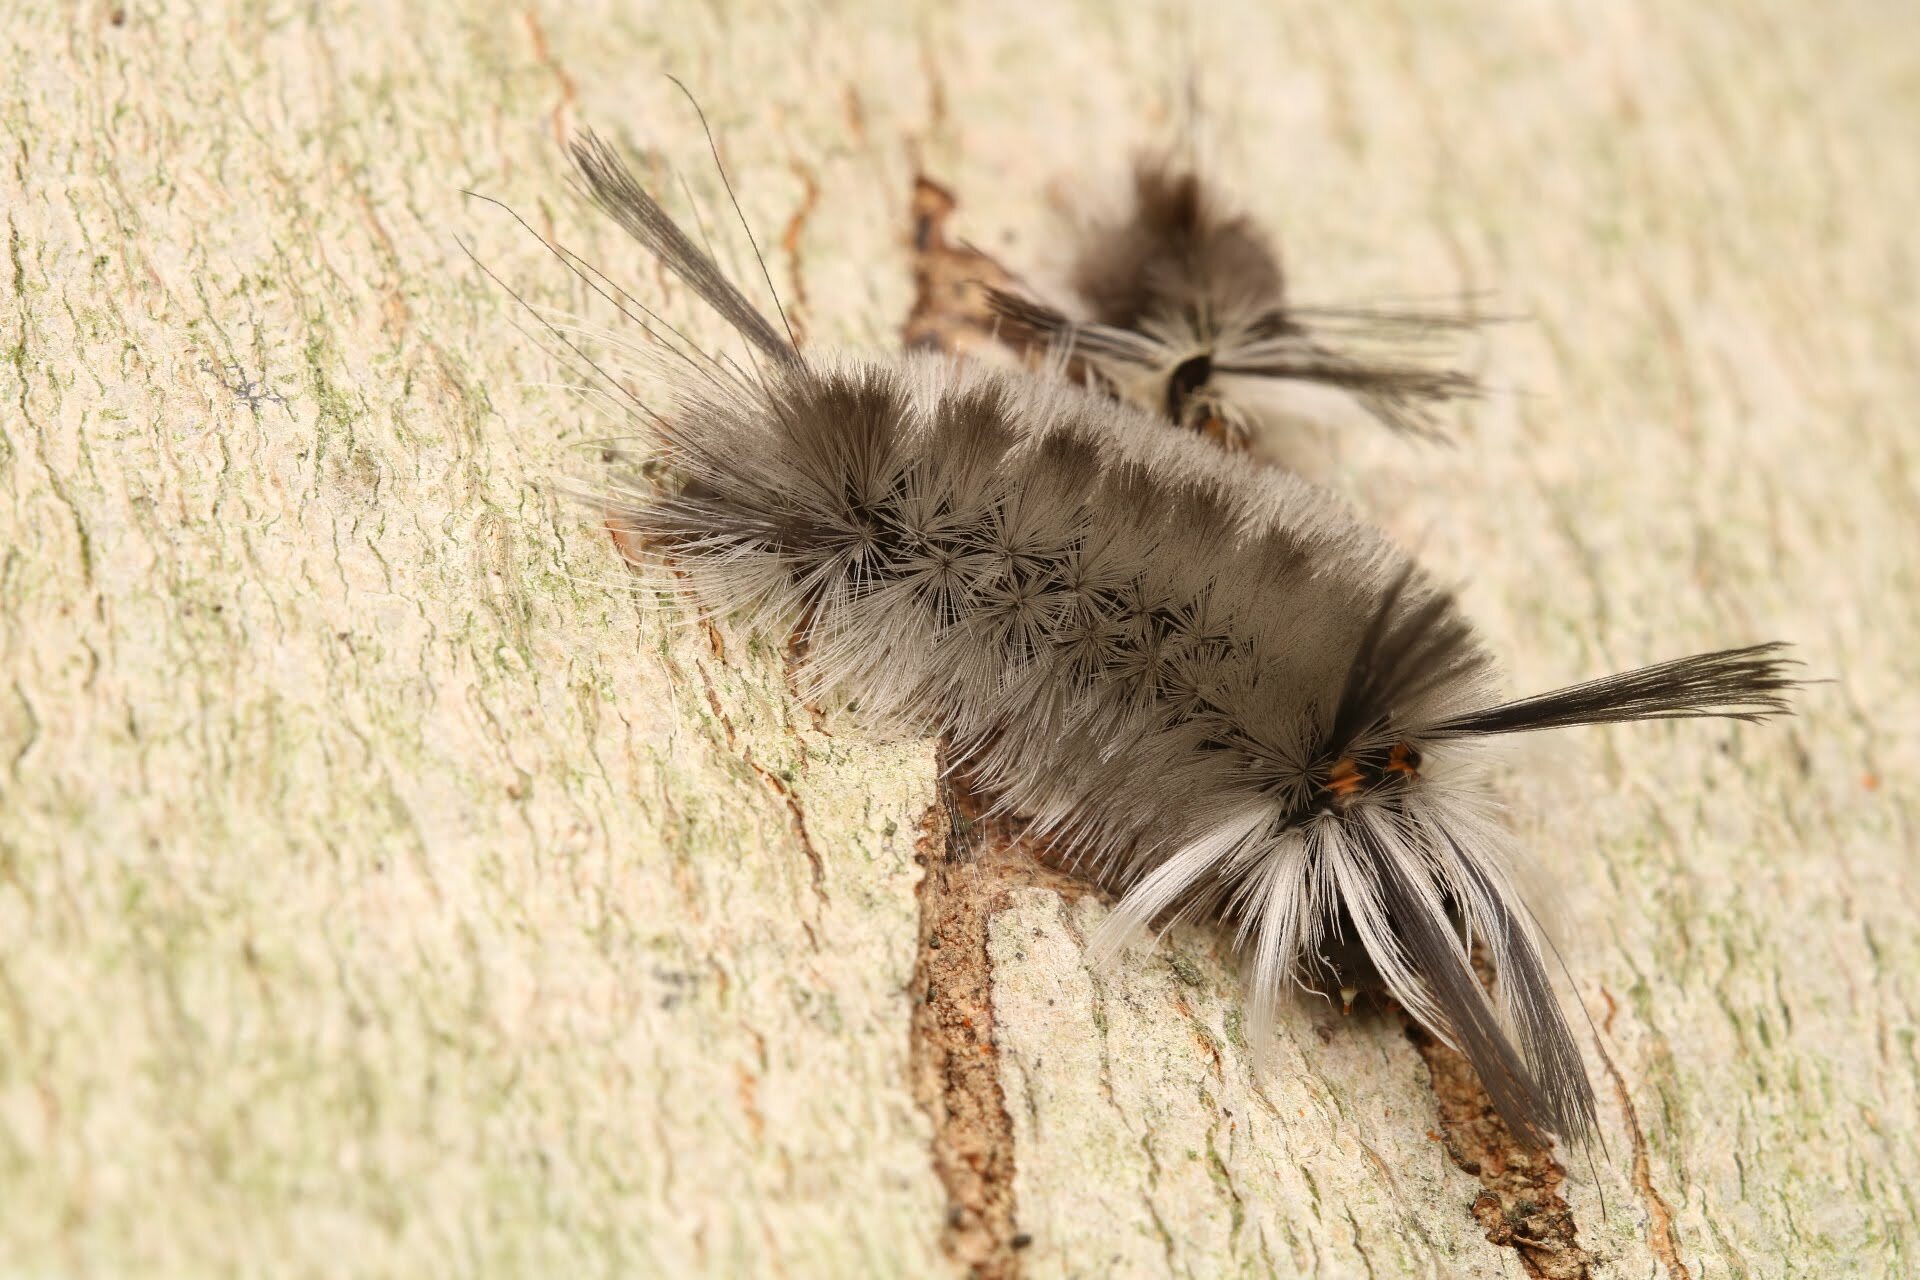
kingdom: Animalia
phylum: Arthropoda
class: Insecta
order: Lepidoptera
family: Erebidae
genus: Halysidota
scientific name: Halysidota tessellaris
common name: Banded tussock moth
